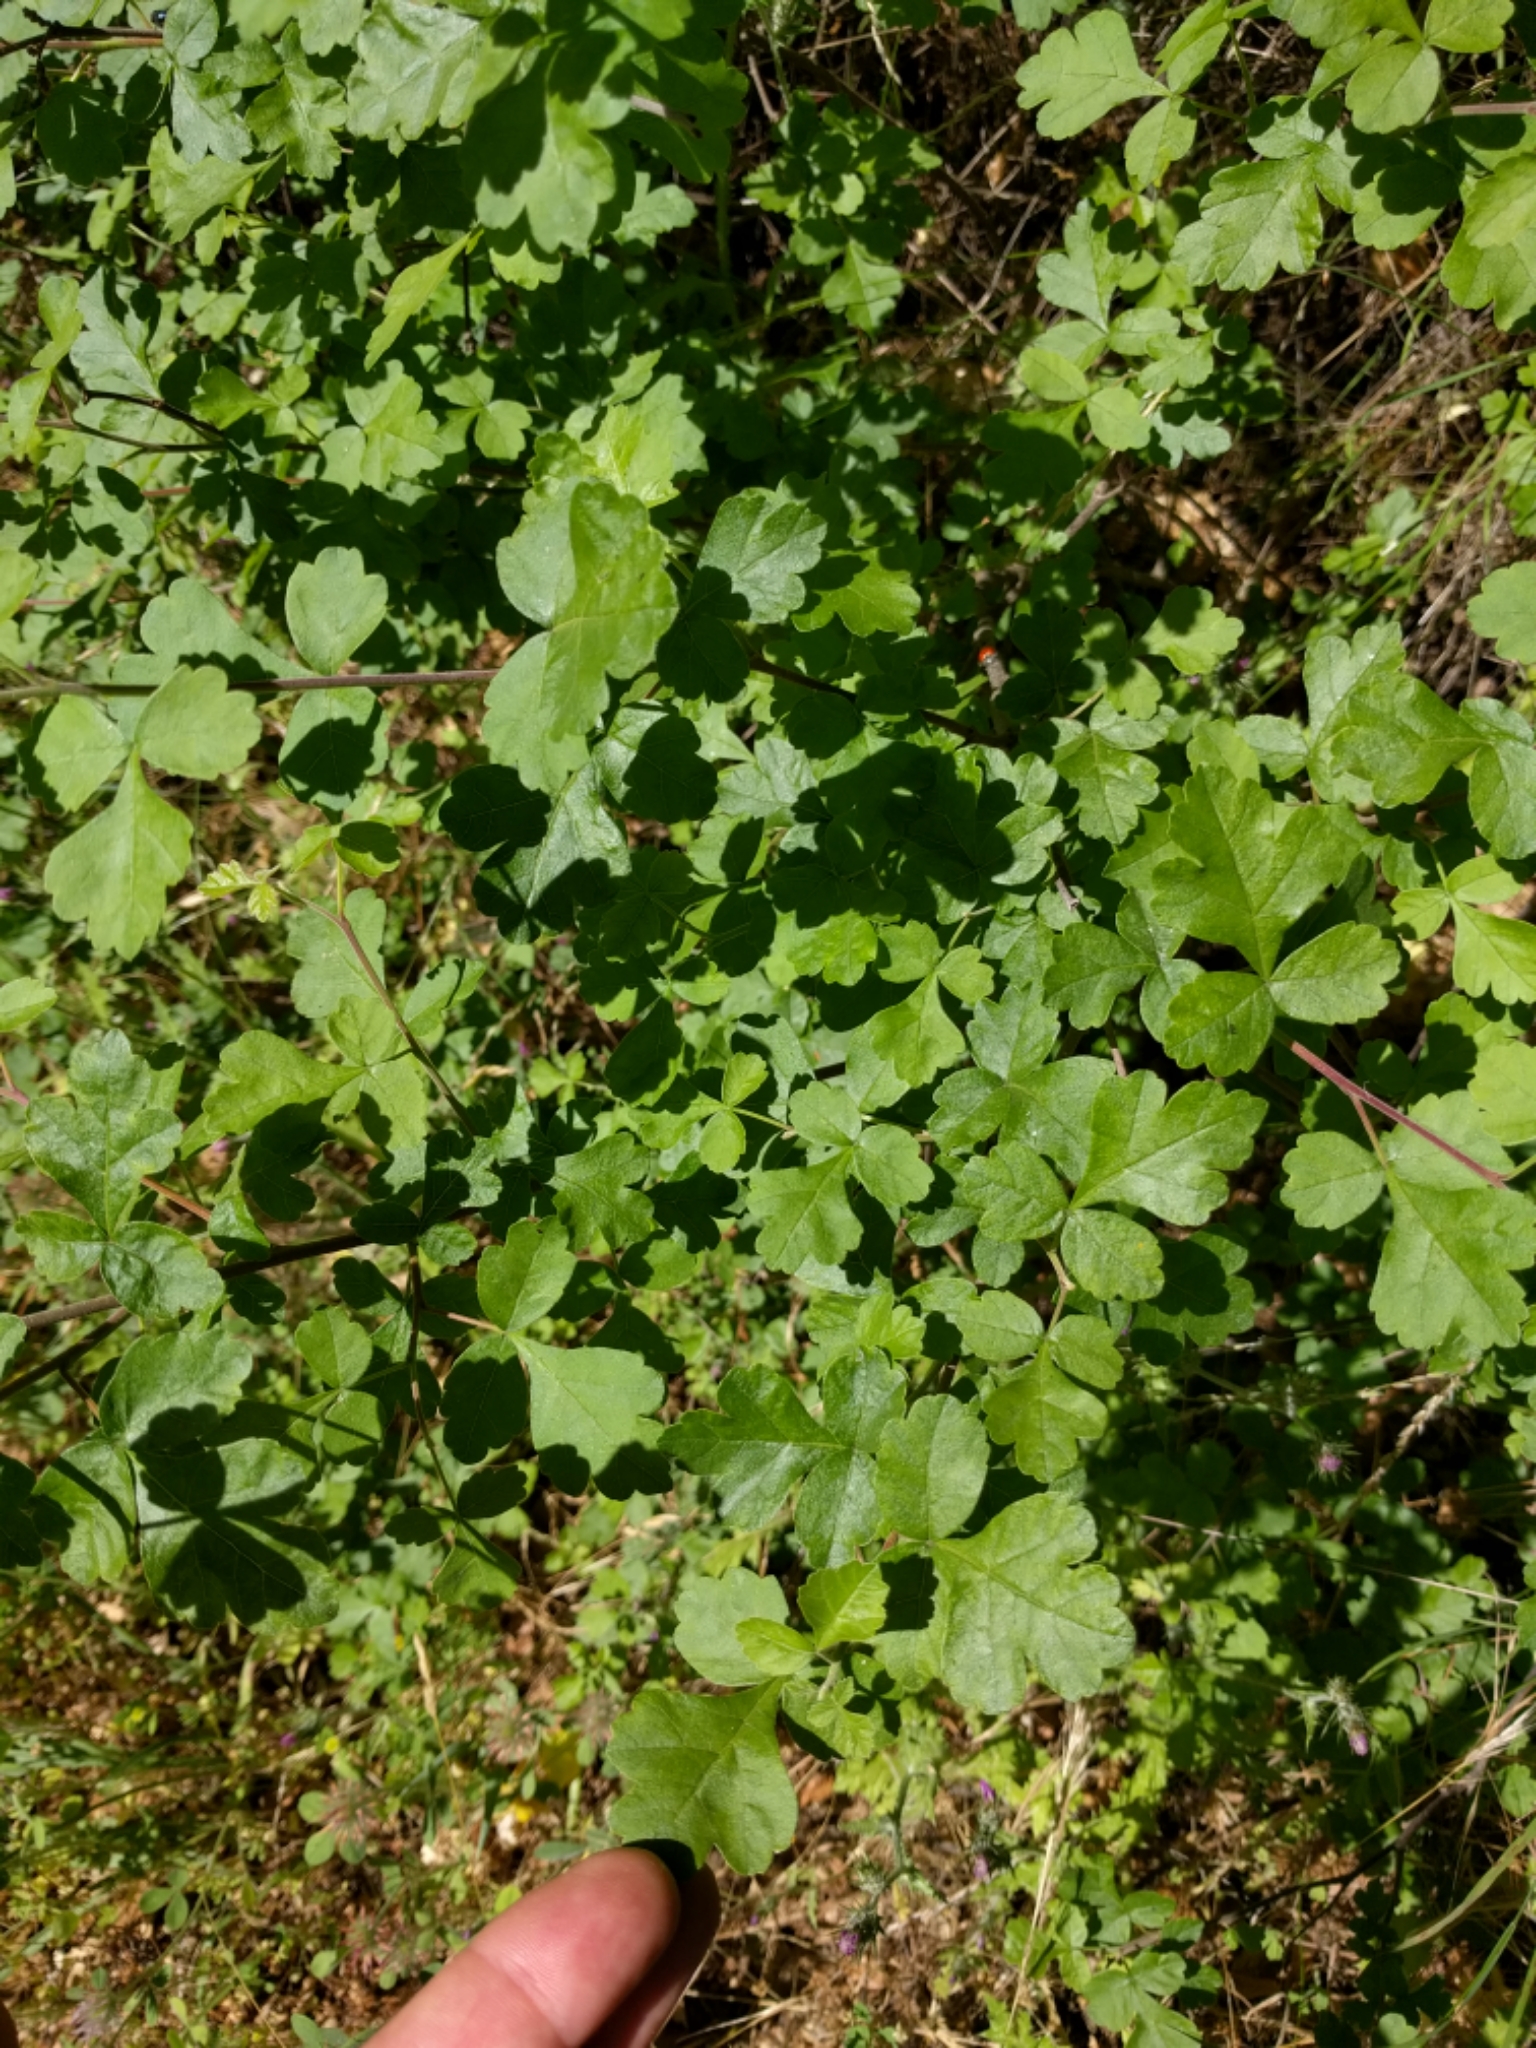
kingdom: Plantae
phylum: Tracheophyta
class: Magnoliopsida
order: Sapindales
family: Anacardiaceae
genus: Rhus
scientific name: Rhus aromatica
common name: Aromatic sumac
